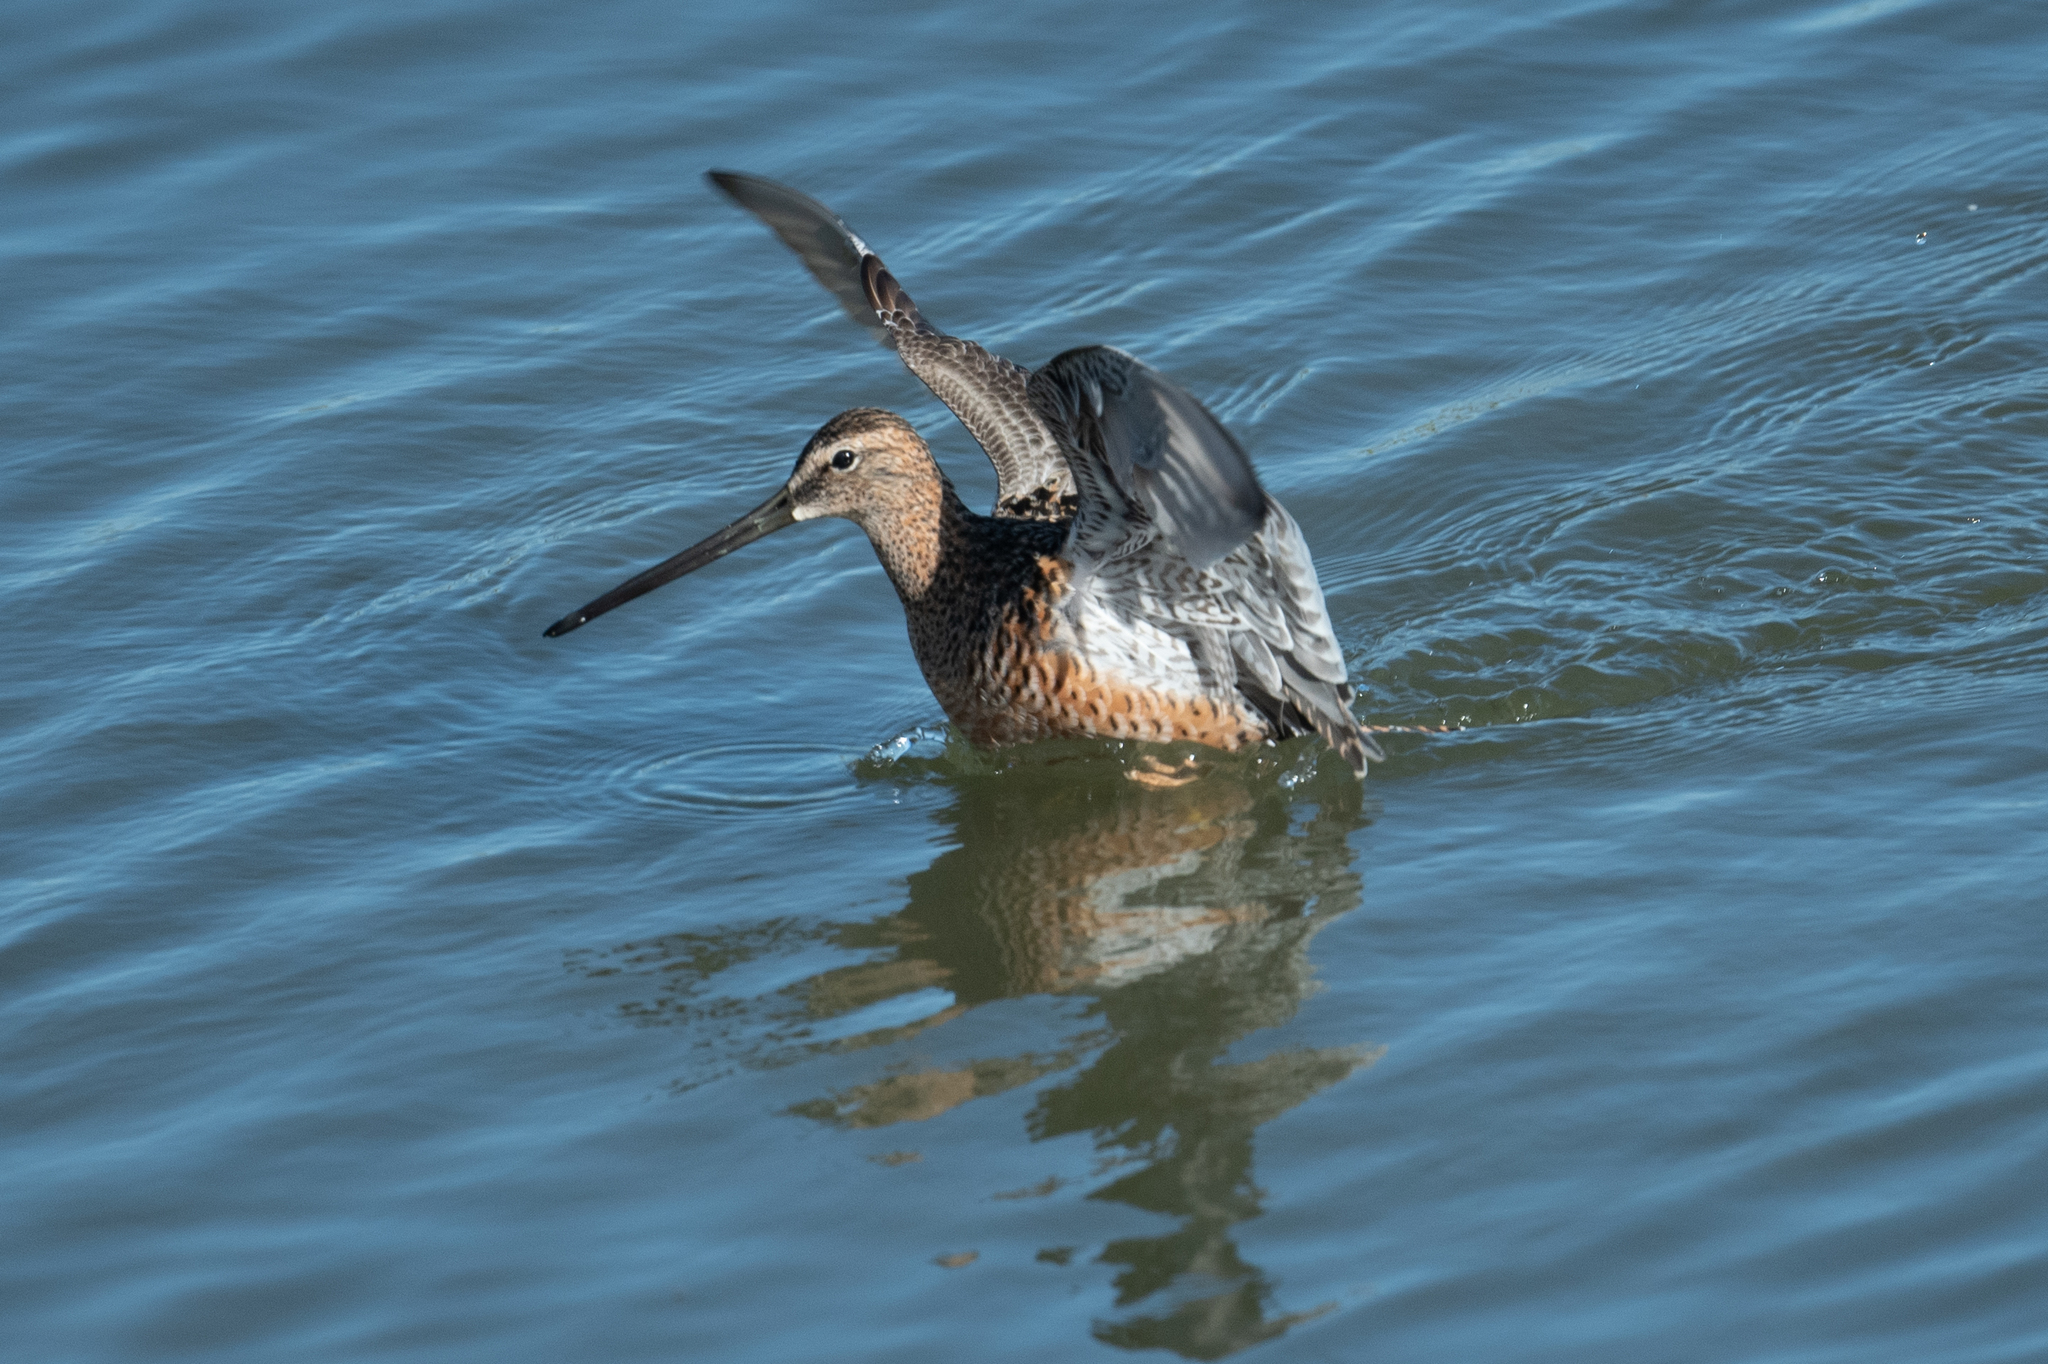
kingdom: Animalia
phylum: Chordata
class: Aves
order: Charadriiformes
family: Scolopacidae
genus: Limnodromus
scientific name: Limnodromus scolopaceus
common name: Long-billed dowitcher
